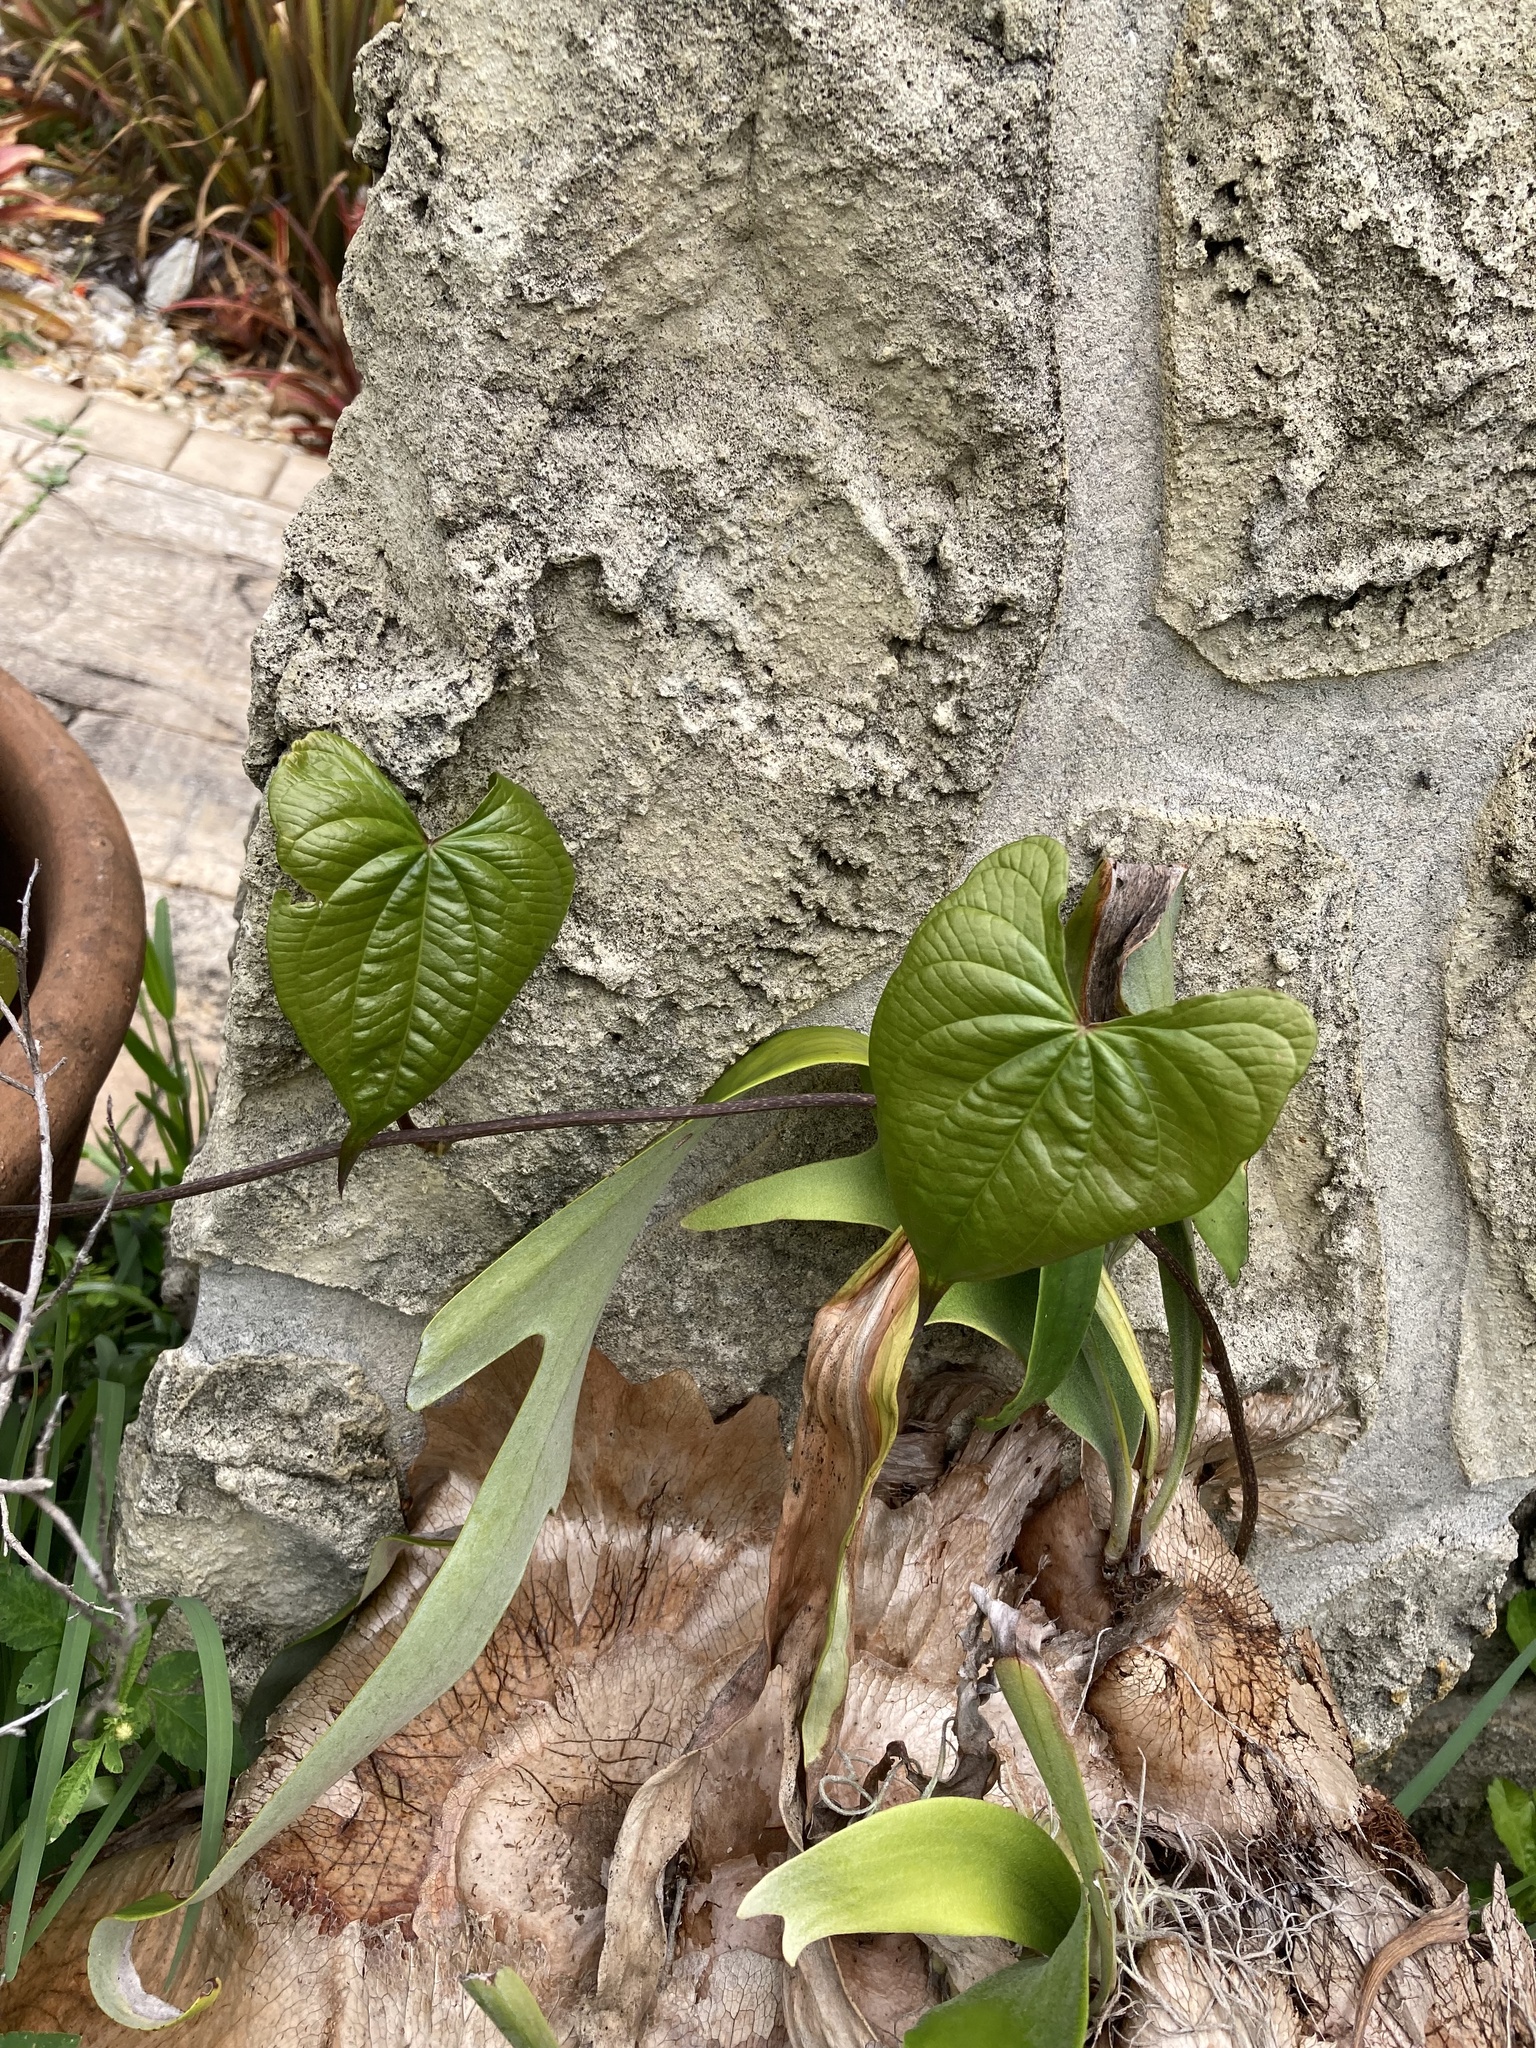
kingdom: Plantae
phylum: Tracheophyta
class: Liliopsida
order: Dioscoreales
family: Dioscoreaceae
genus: Dioscorea
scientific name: Dioscorea bulbifera
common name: Air yam
